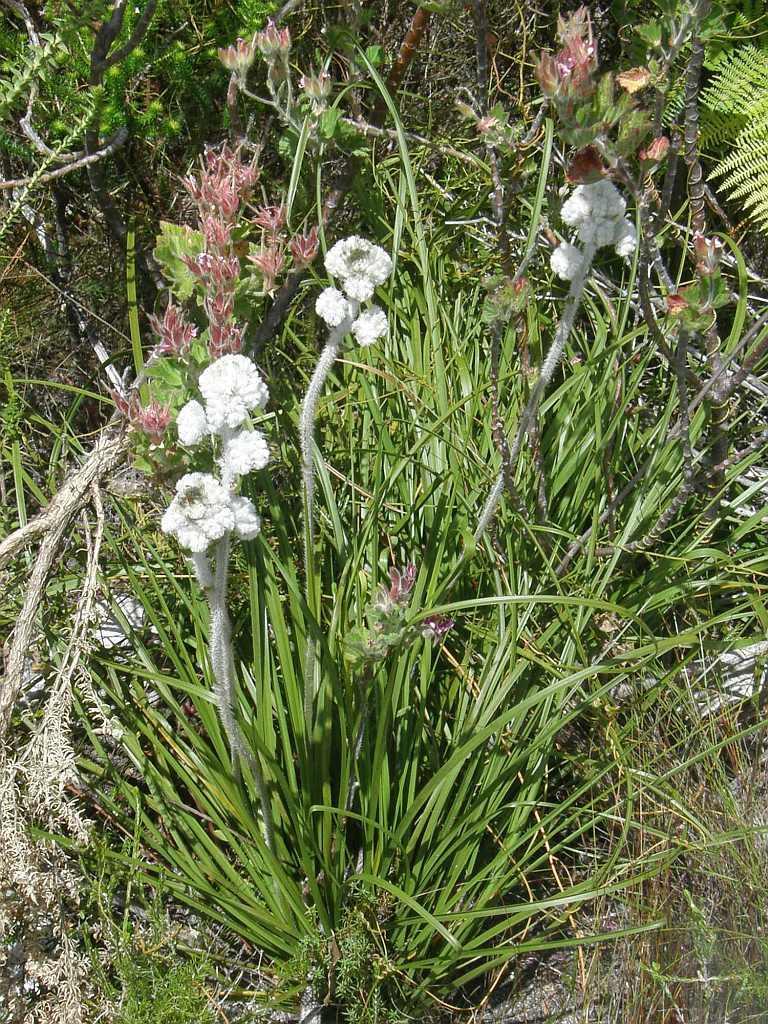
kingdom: Plantae
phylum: Tracheophyta
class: Liliopsida
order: Asparagales
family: Lanariaceae
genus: Lanaria
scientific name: Lanaria lanata
